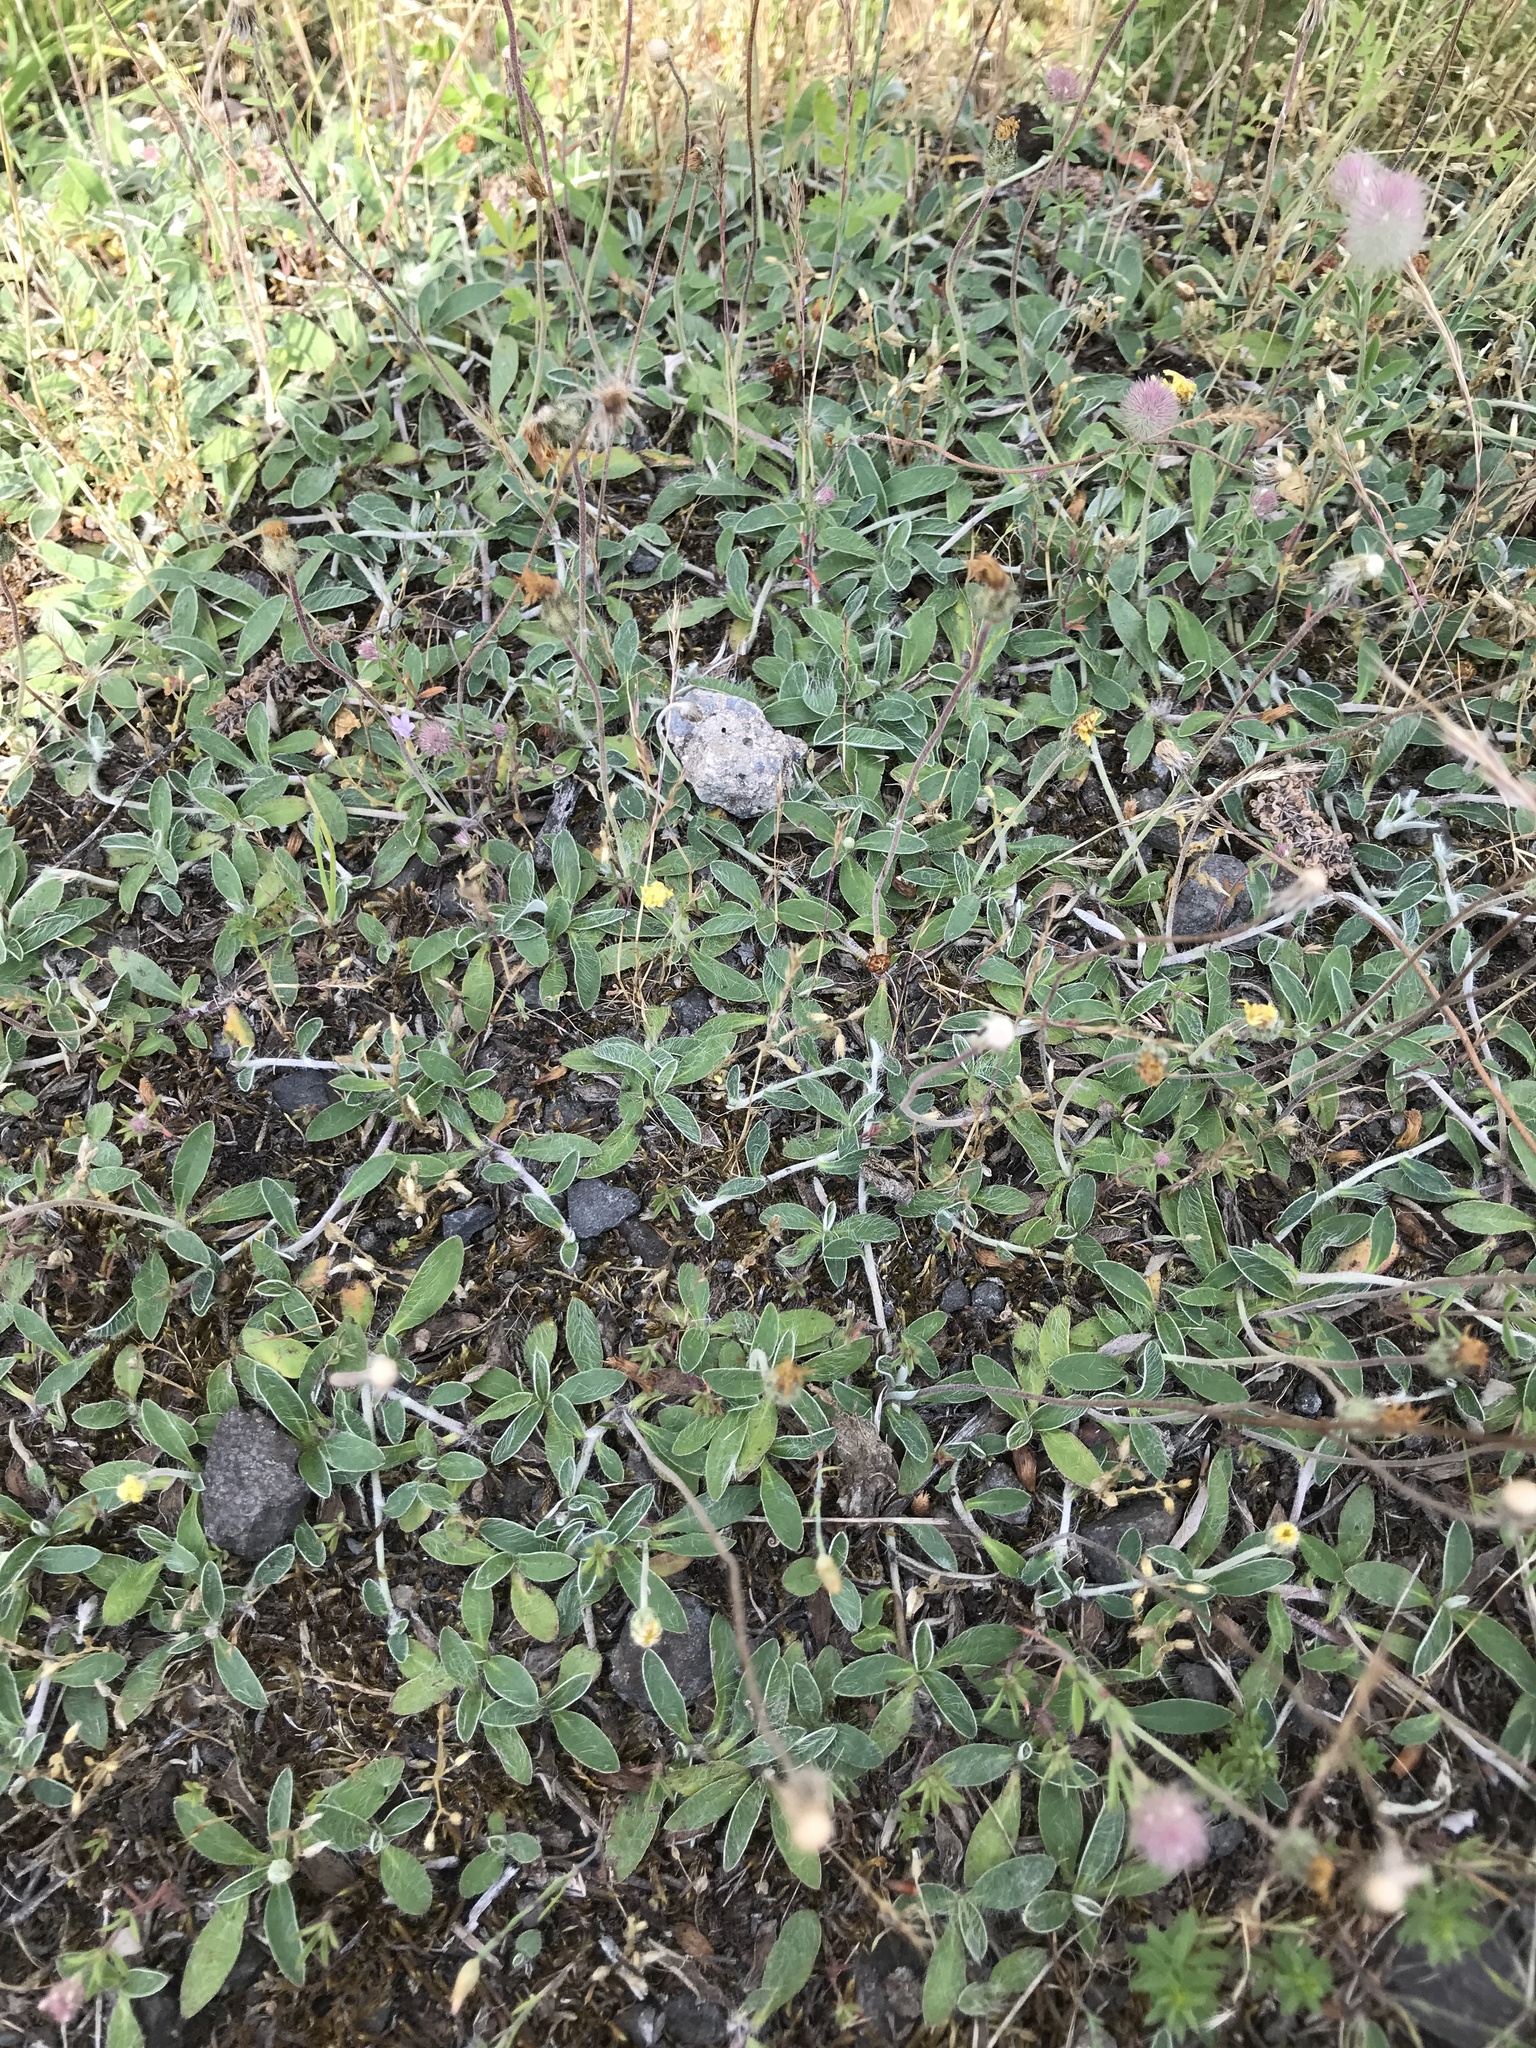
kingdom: Plantae
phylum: Tracheophyta
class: Magnoliopsida
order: Asterales
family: Asteraceae
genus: Pilosella
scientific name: Pilosella officinarum
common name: Mouse-ear hawkweed
